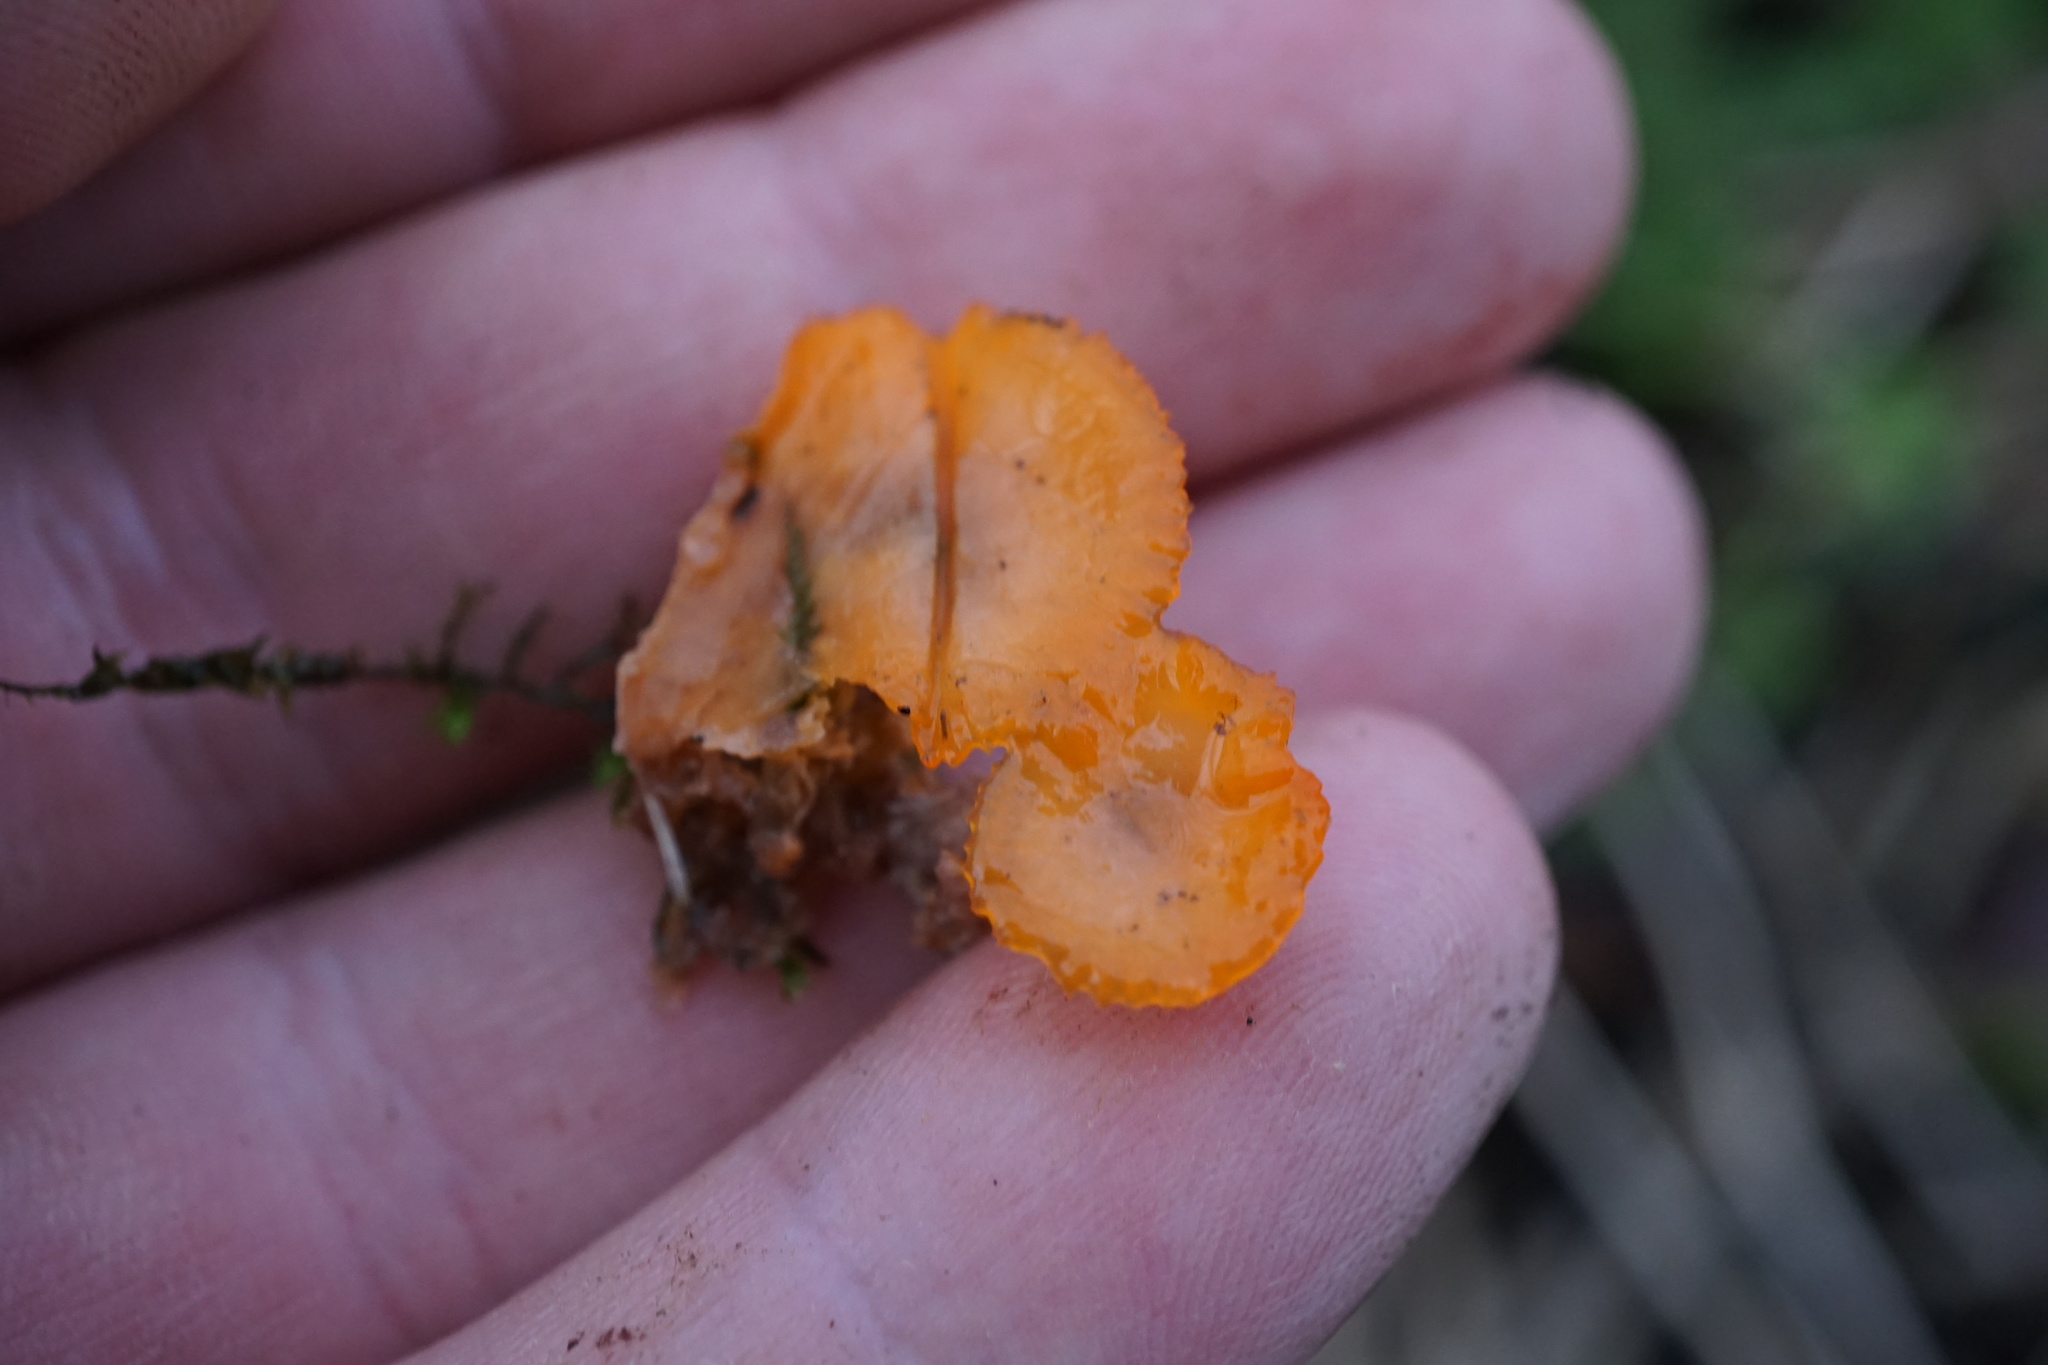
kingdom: Fungi
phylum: Basidiomycota
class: Agaricomycetes
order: Polyporales
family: Meruliaceae
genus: Phlebia
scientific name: Phlebia radiata
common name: Wrinkled crust
